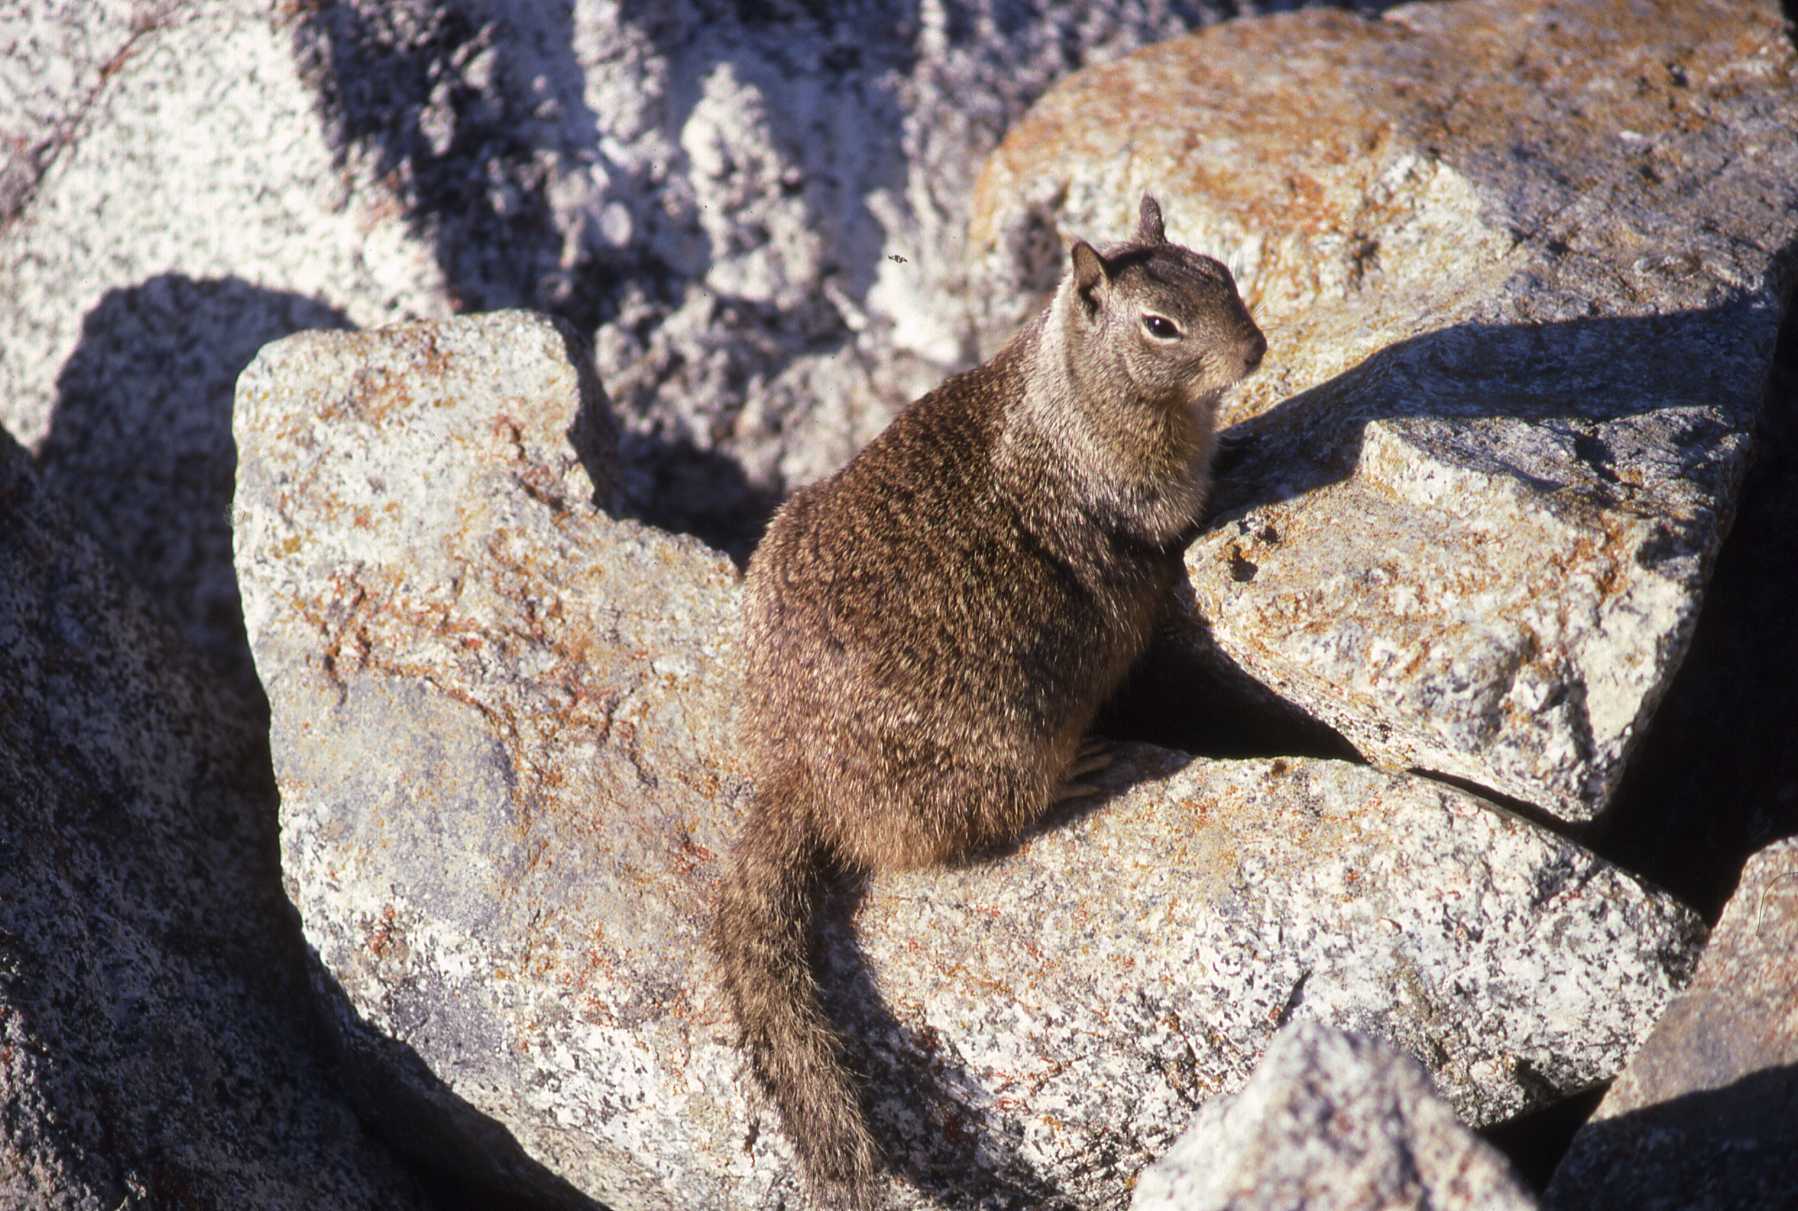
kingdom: Animalia
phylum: Chordata
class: Mammalia
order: Rodentia
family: Sciuridae
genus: Otospermophilus
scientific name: Otospermophilus beecheyi
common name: California ground squirrel
